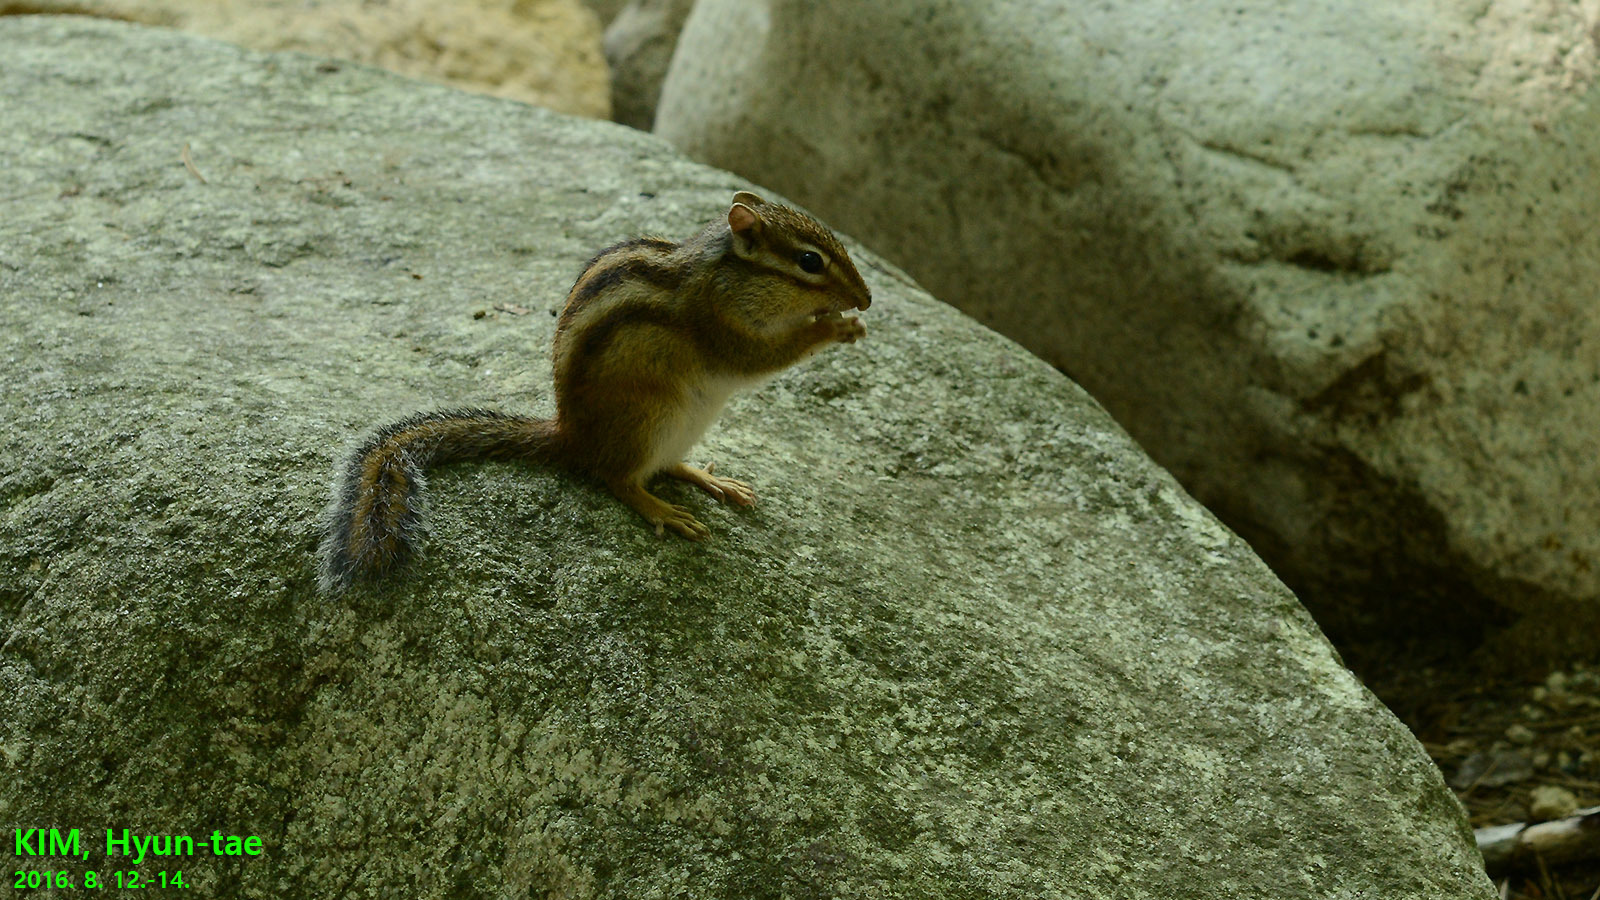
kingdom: Animalia
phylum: Chordata
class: Mammalia
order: Rodentia
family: Sciuridae
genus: Tamias
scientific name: Tamias sibiricus
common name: Siberian chipmunk
